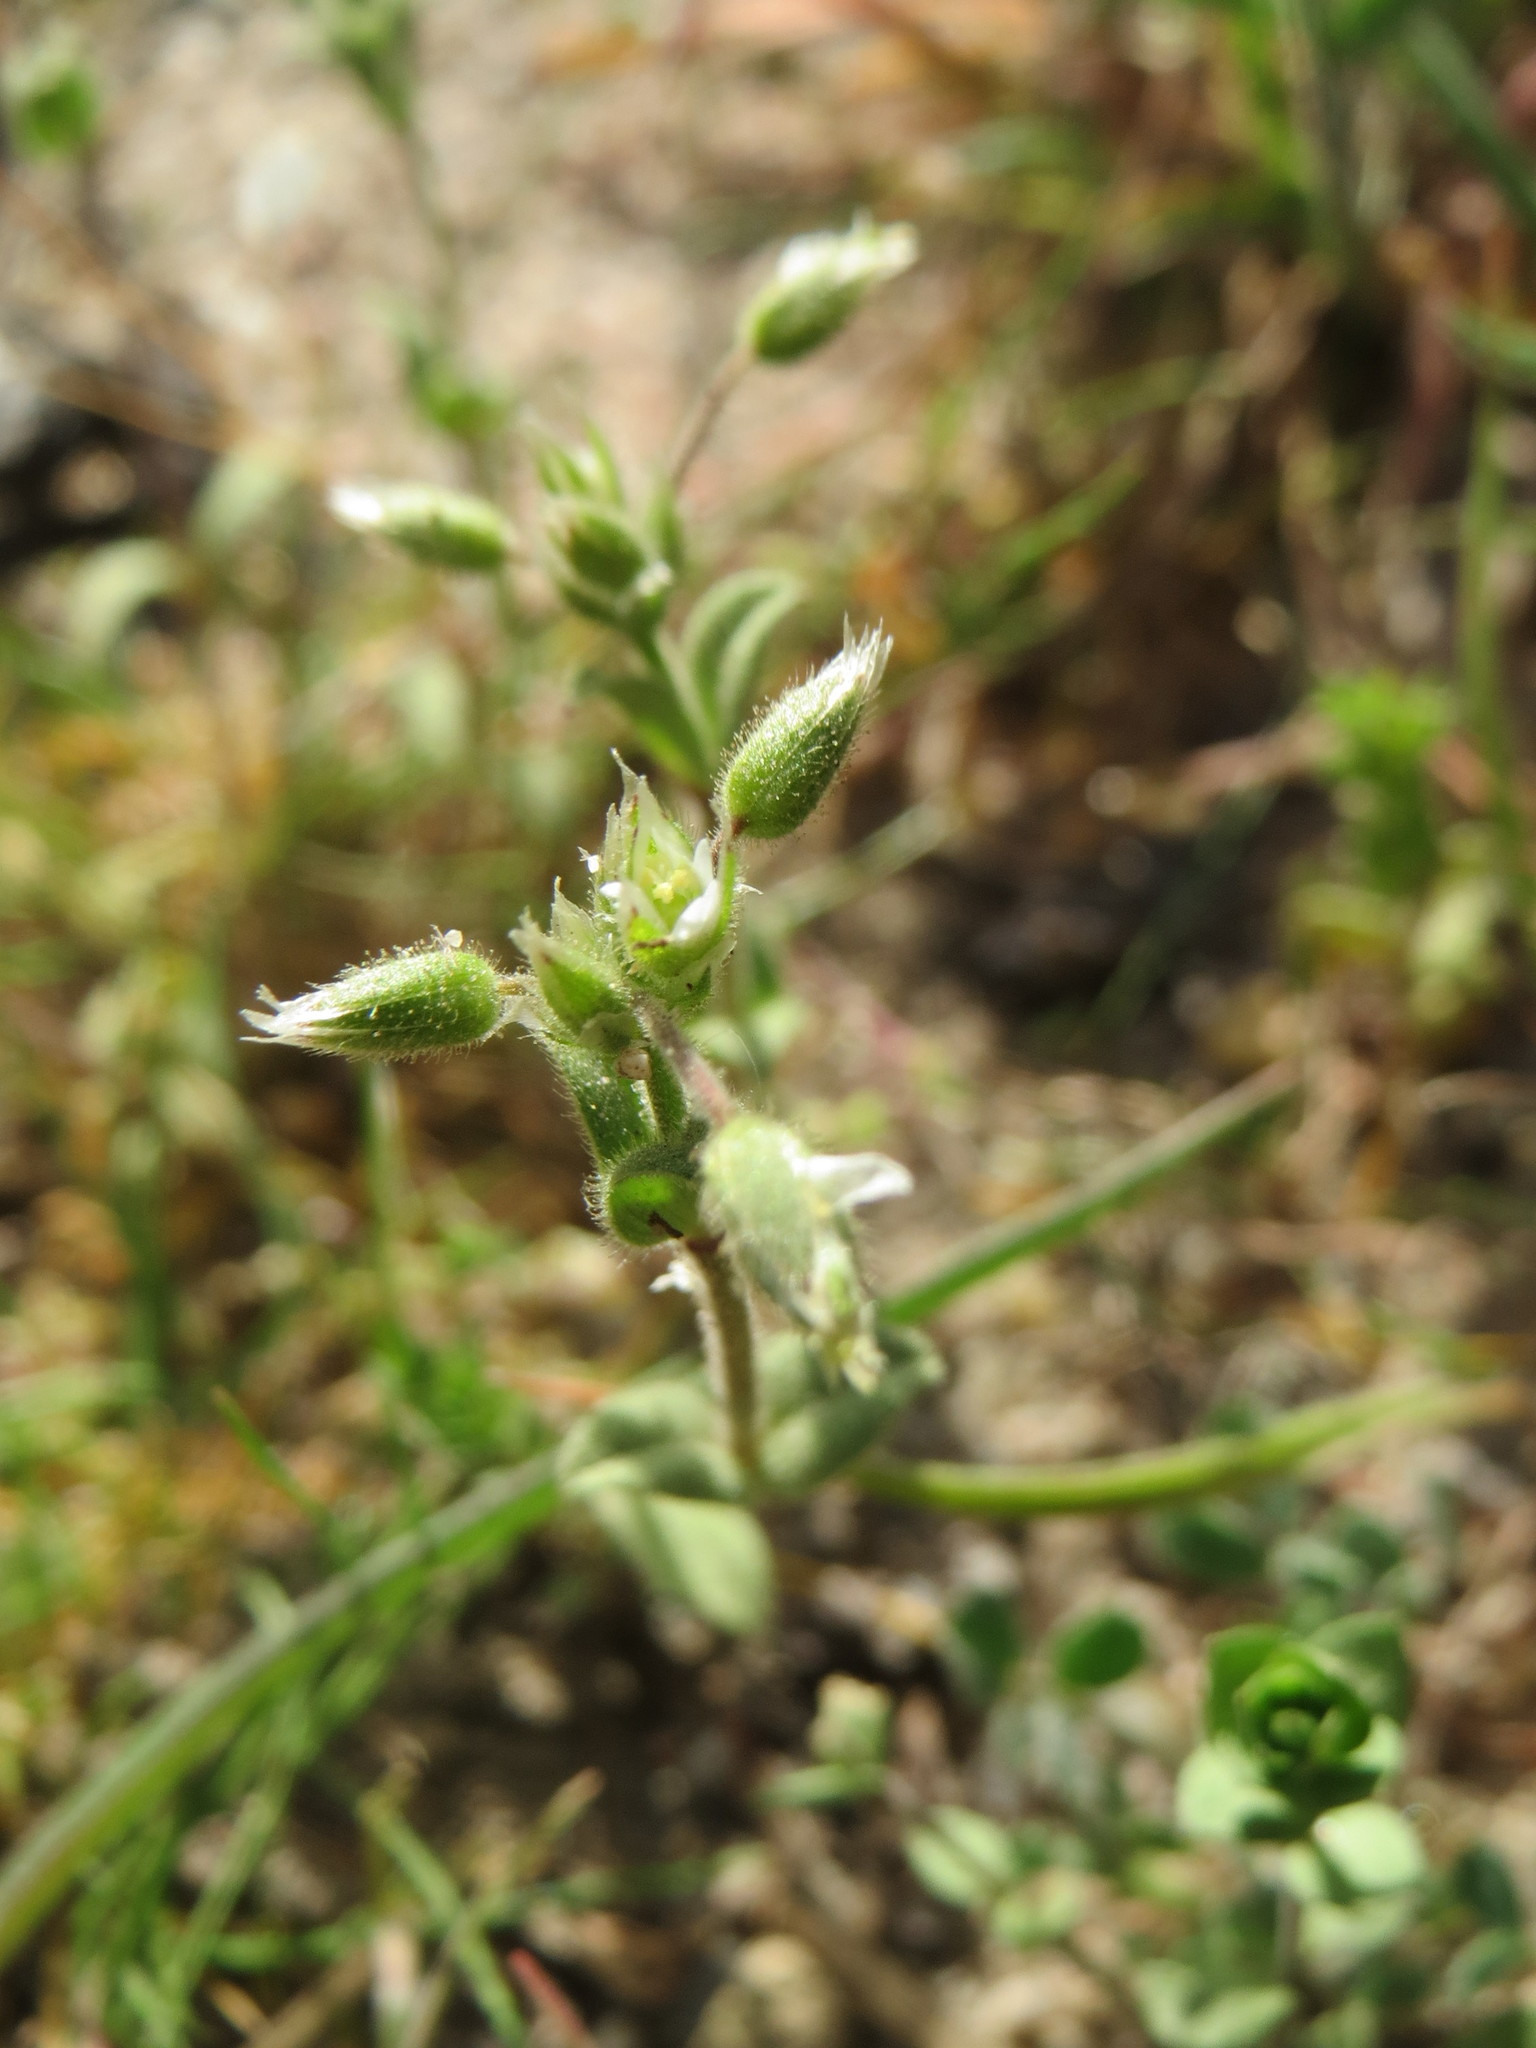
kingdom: Plantae
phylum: Tracheophyta
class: Magnoliopsida
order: Caryophyllales
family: Caryophyllaceae
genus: Cerastium
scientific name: Cerastium semidecandrum
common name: Little mouse-ear
